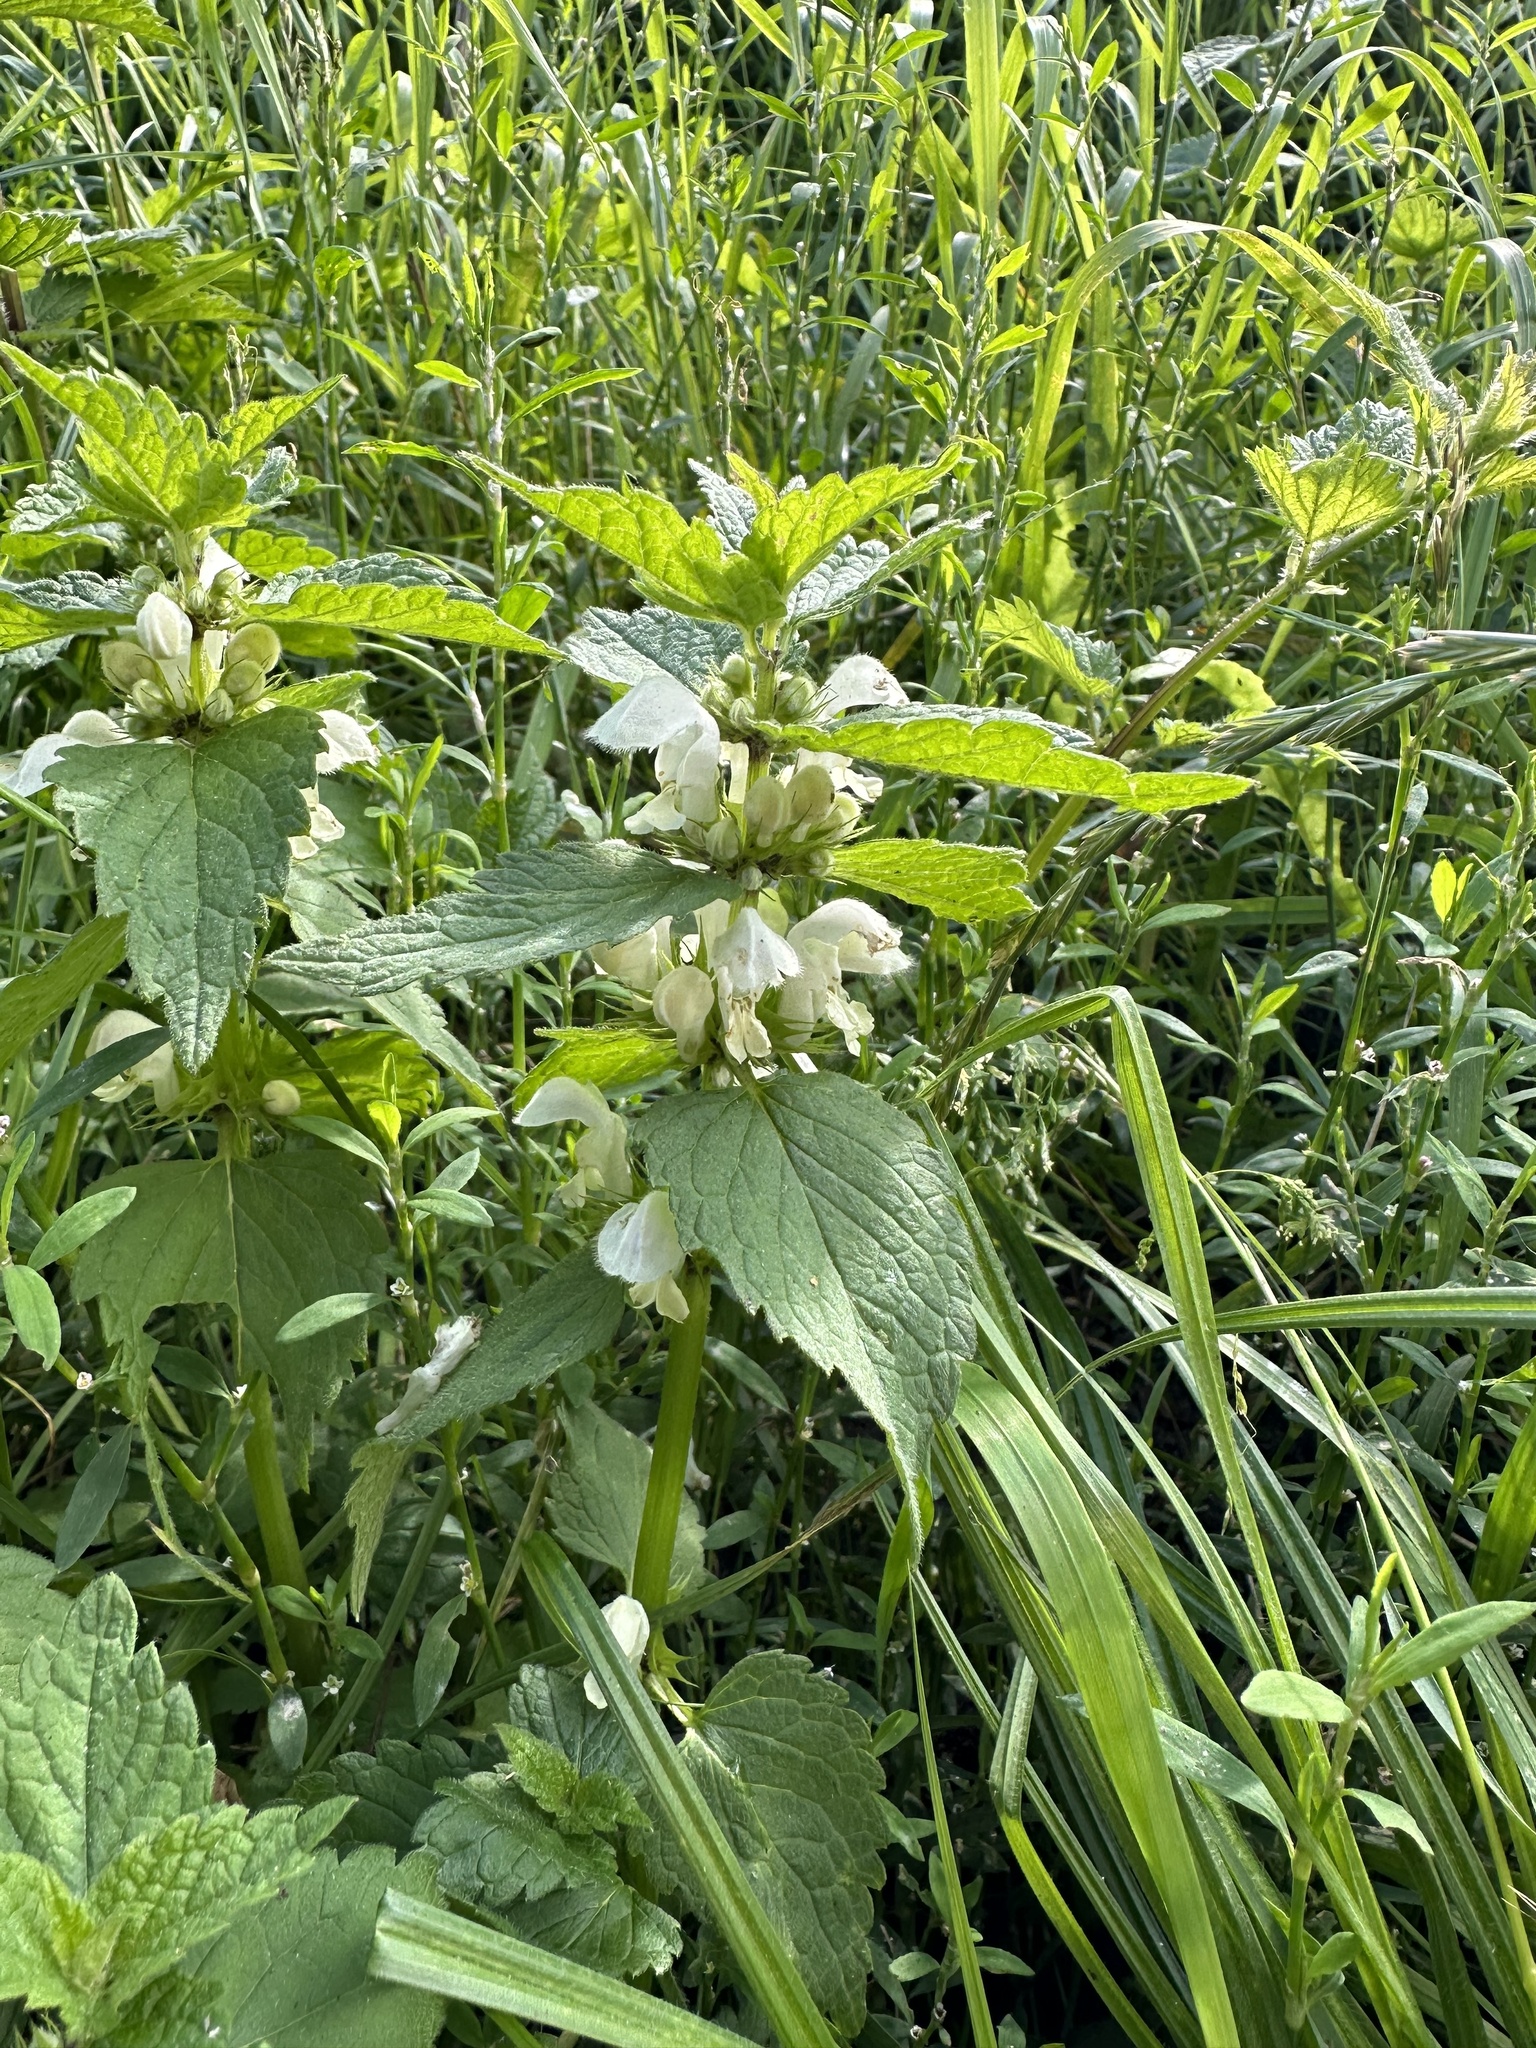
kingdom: Plantae
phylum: Tracheophyta
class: Magnoliopsida
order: Lamiales
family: Lamiaceae
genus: Lamium
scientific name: Lamium album
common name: White dead-nettle
